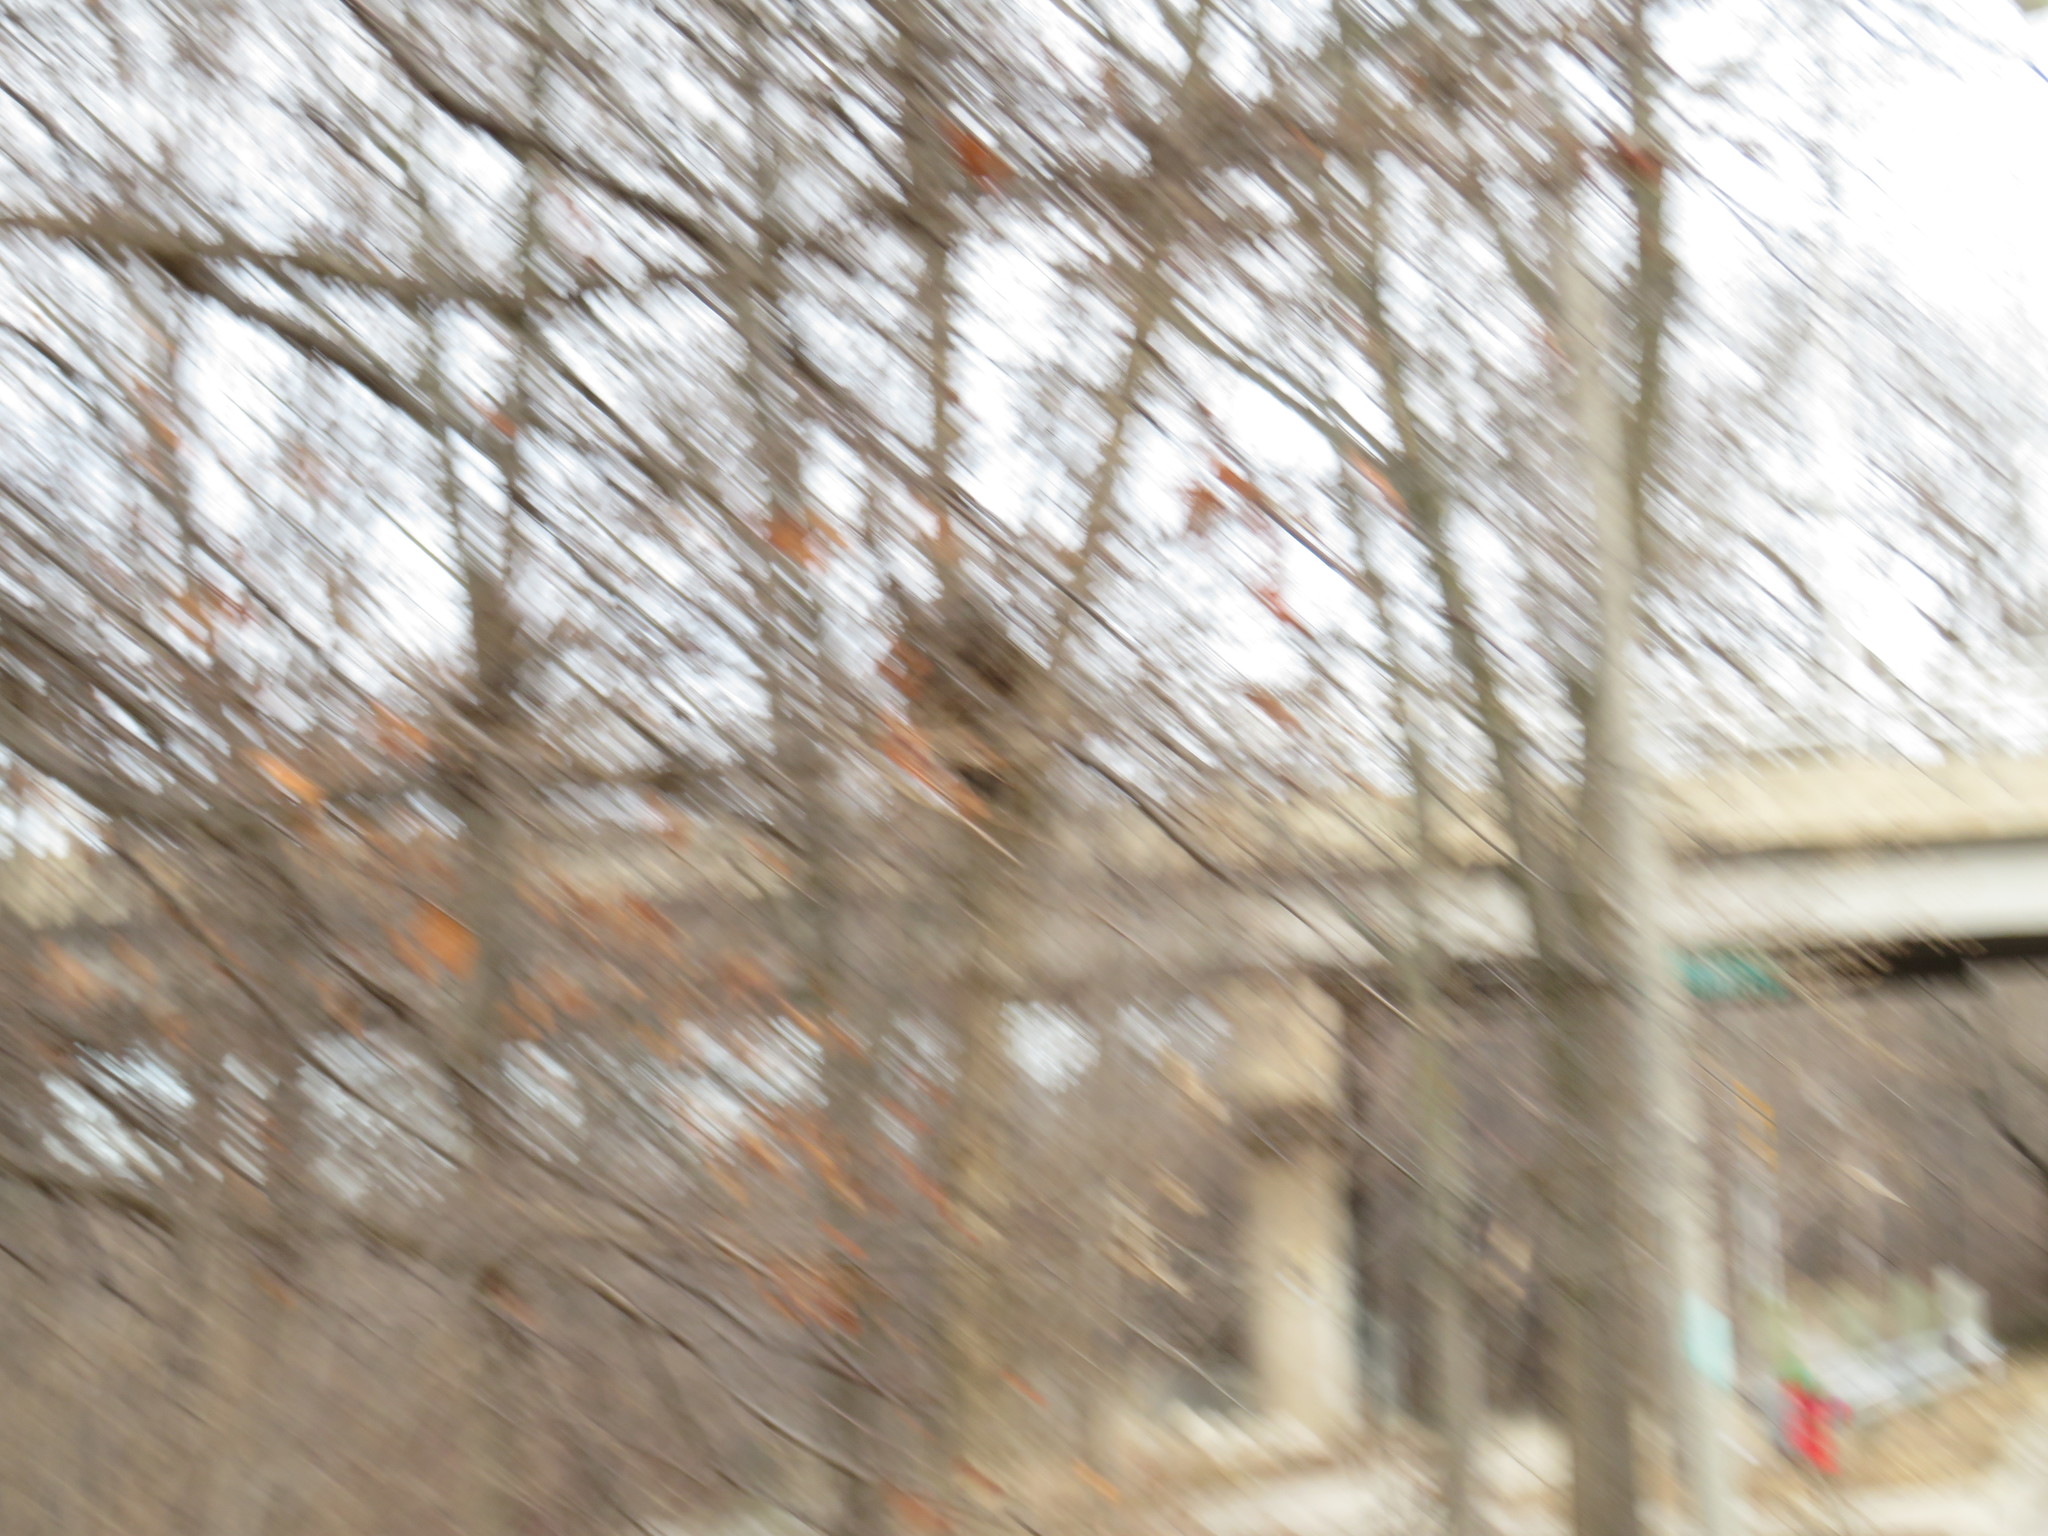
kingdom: Animalia
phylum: Chordata
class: Mammalia
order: Rodentia
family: Sciuridae
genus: Sciurus
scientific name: Sciurus carolinensis
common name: Eastern gray squirrel
